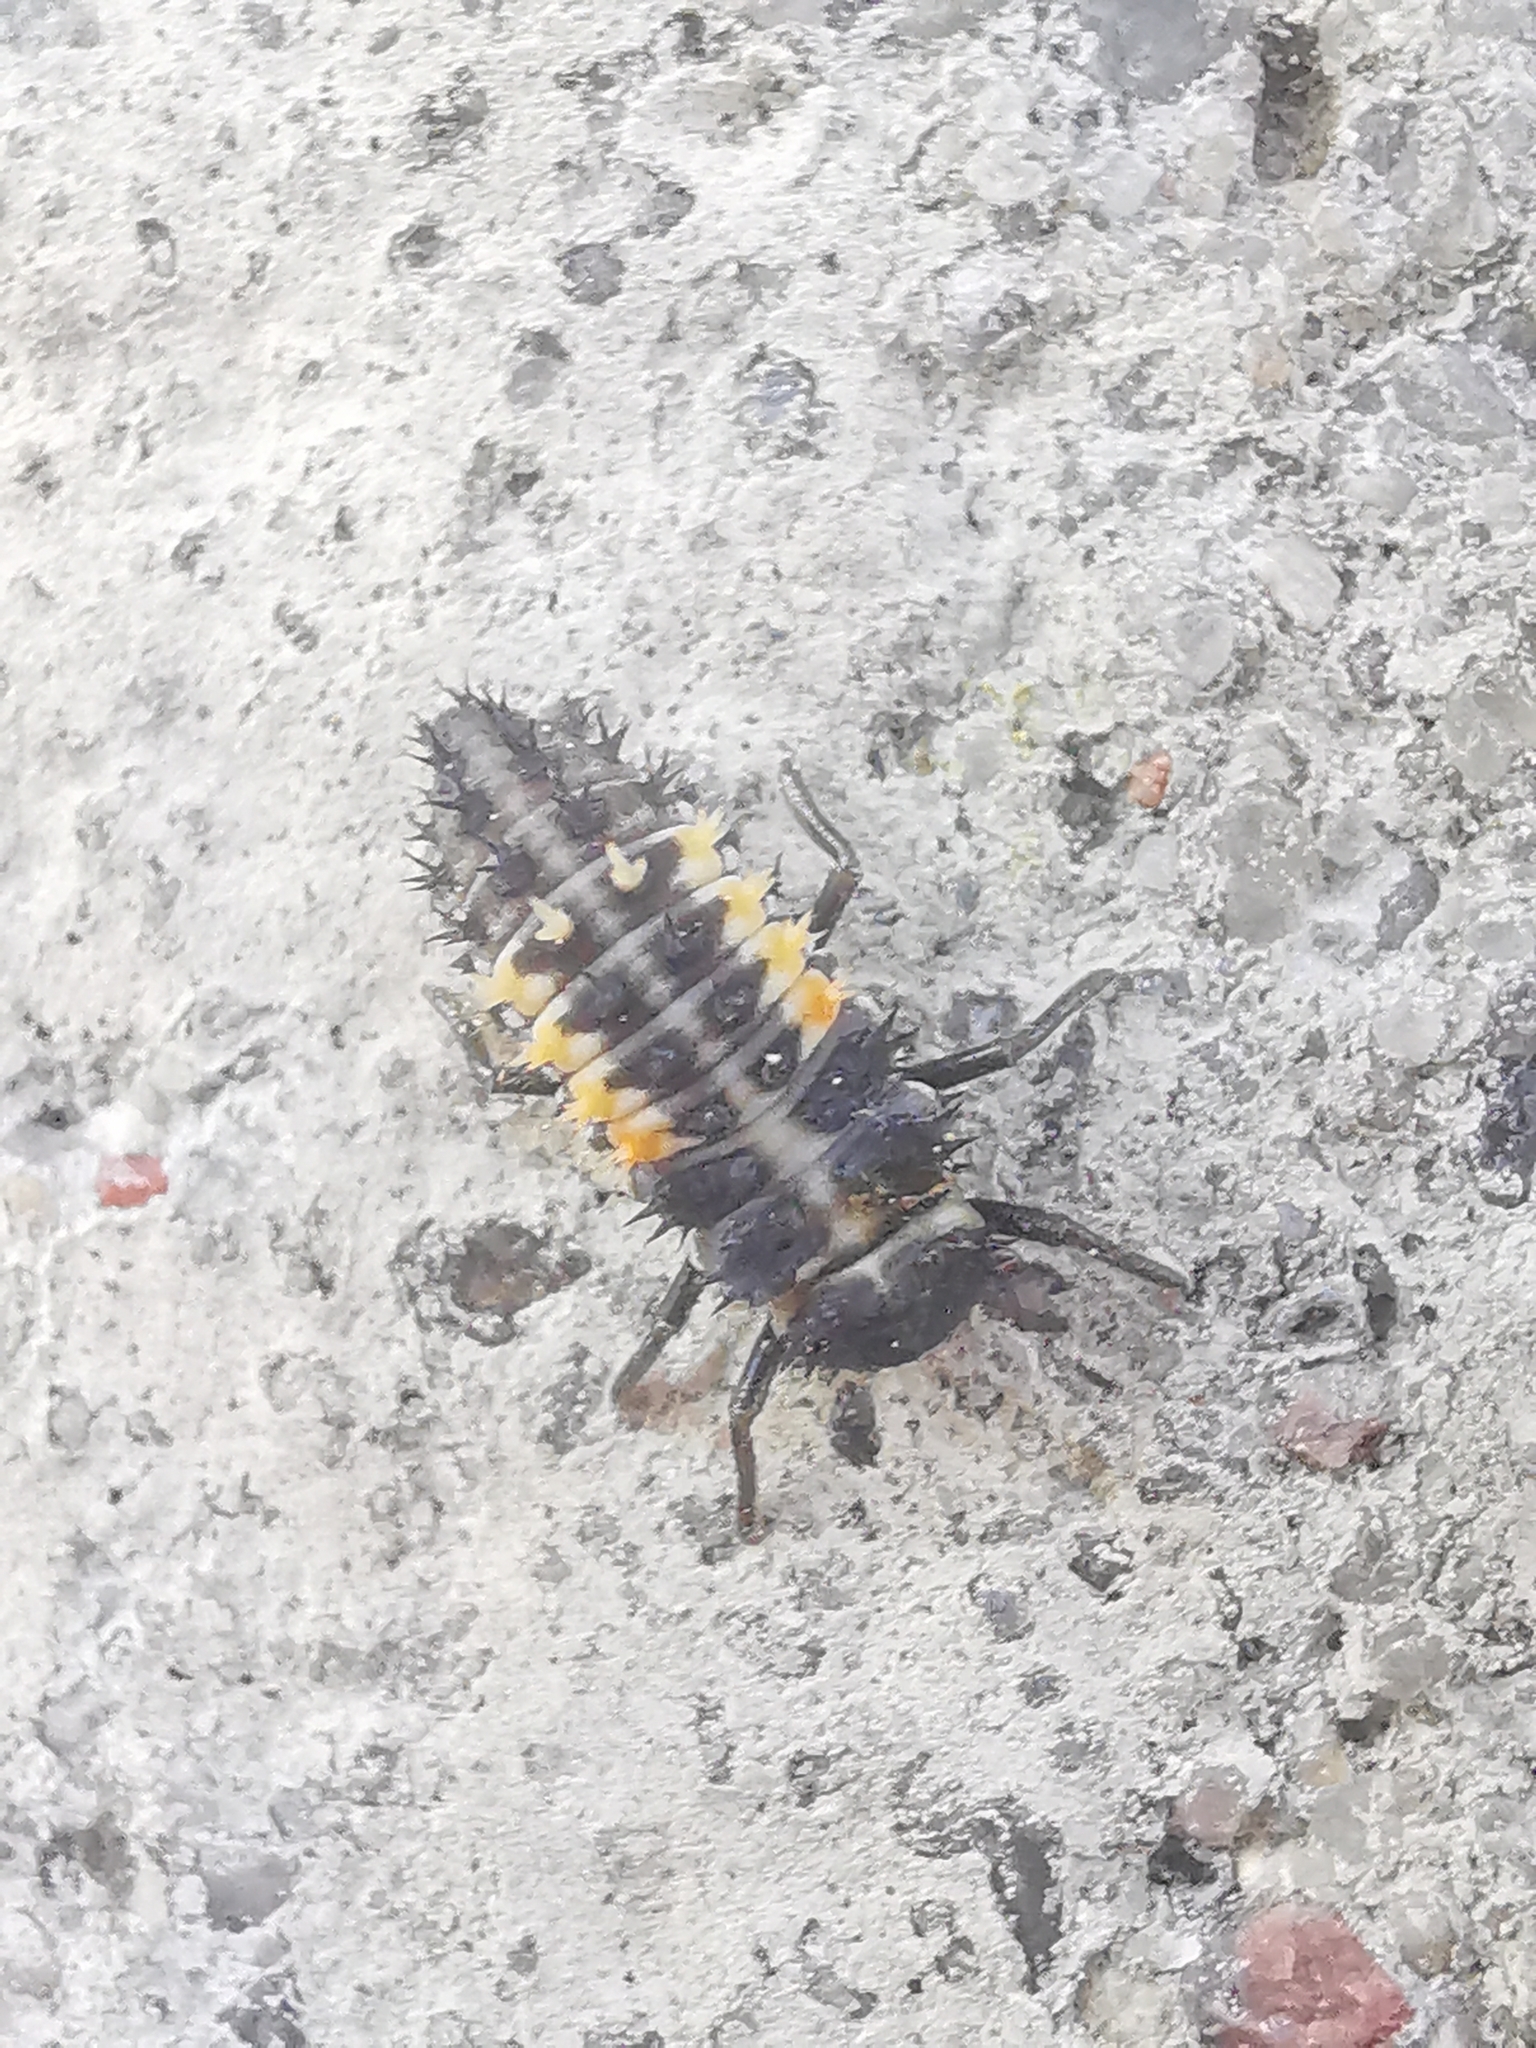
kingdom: Animalia
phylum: Arthropoda
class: Insecta
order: Coleoptera
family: Coccinellidae
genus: Harmonia
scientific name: Harmonia quadripunctata
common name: Cream-streaked ladybird
